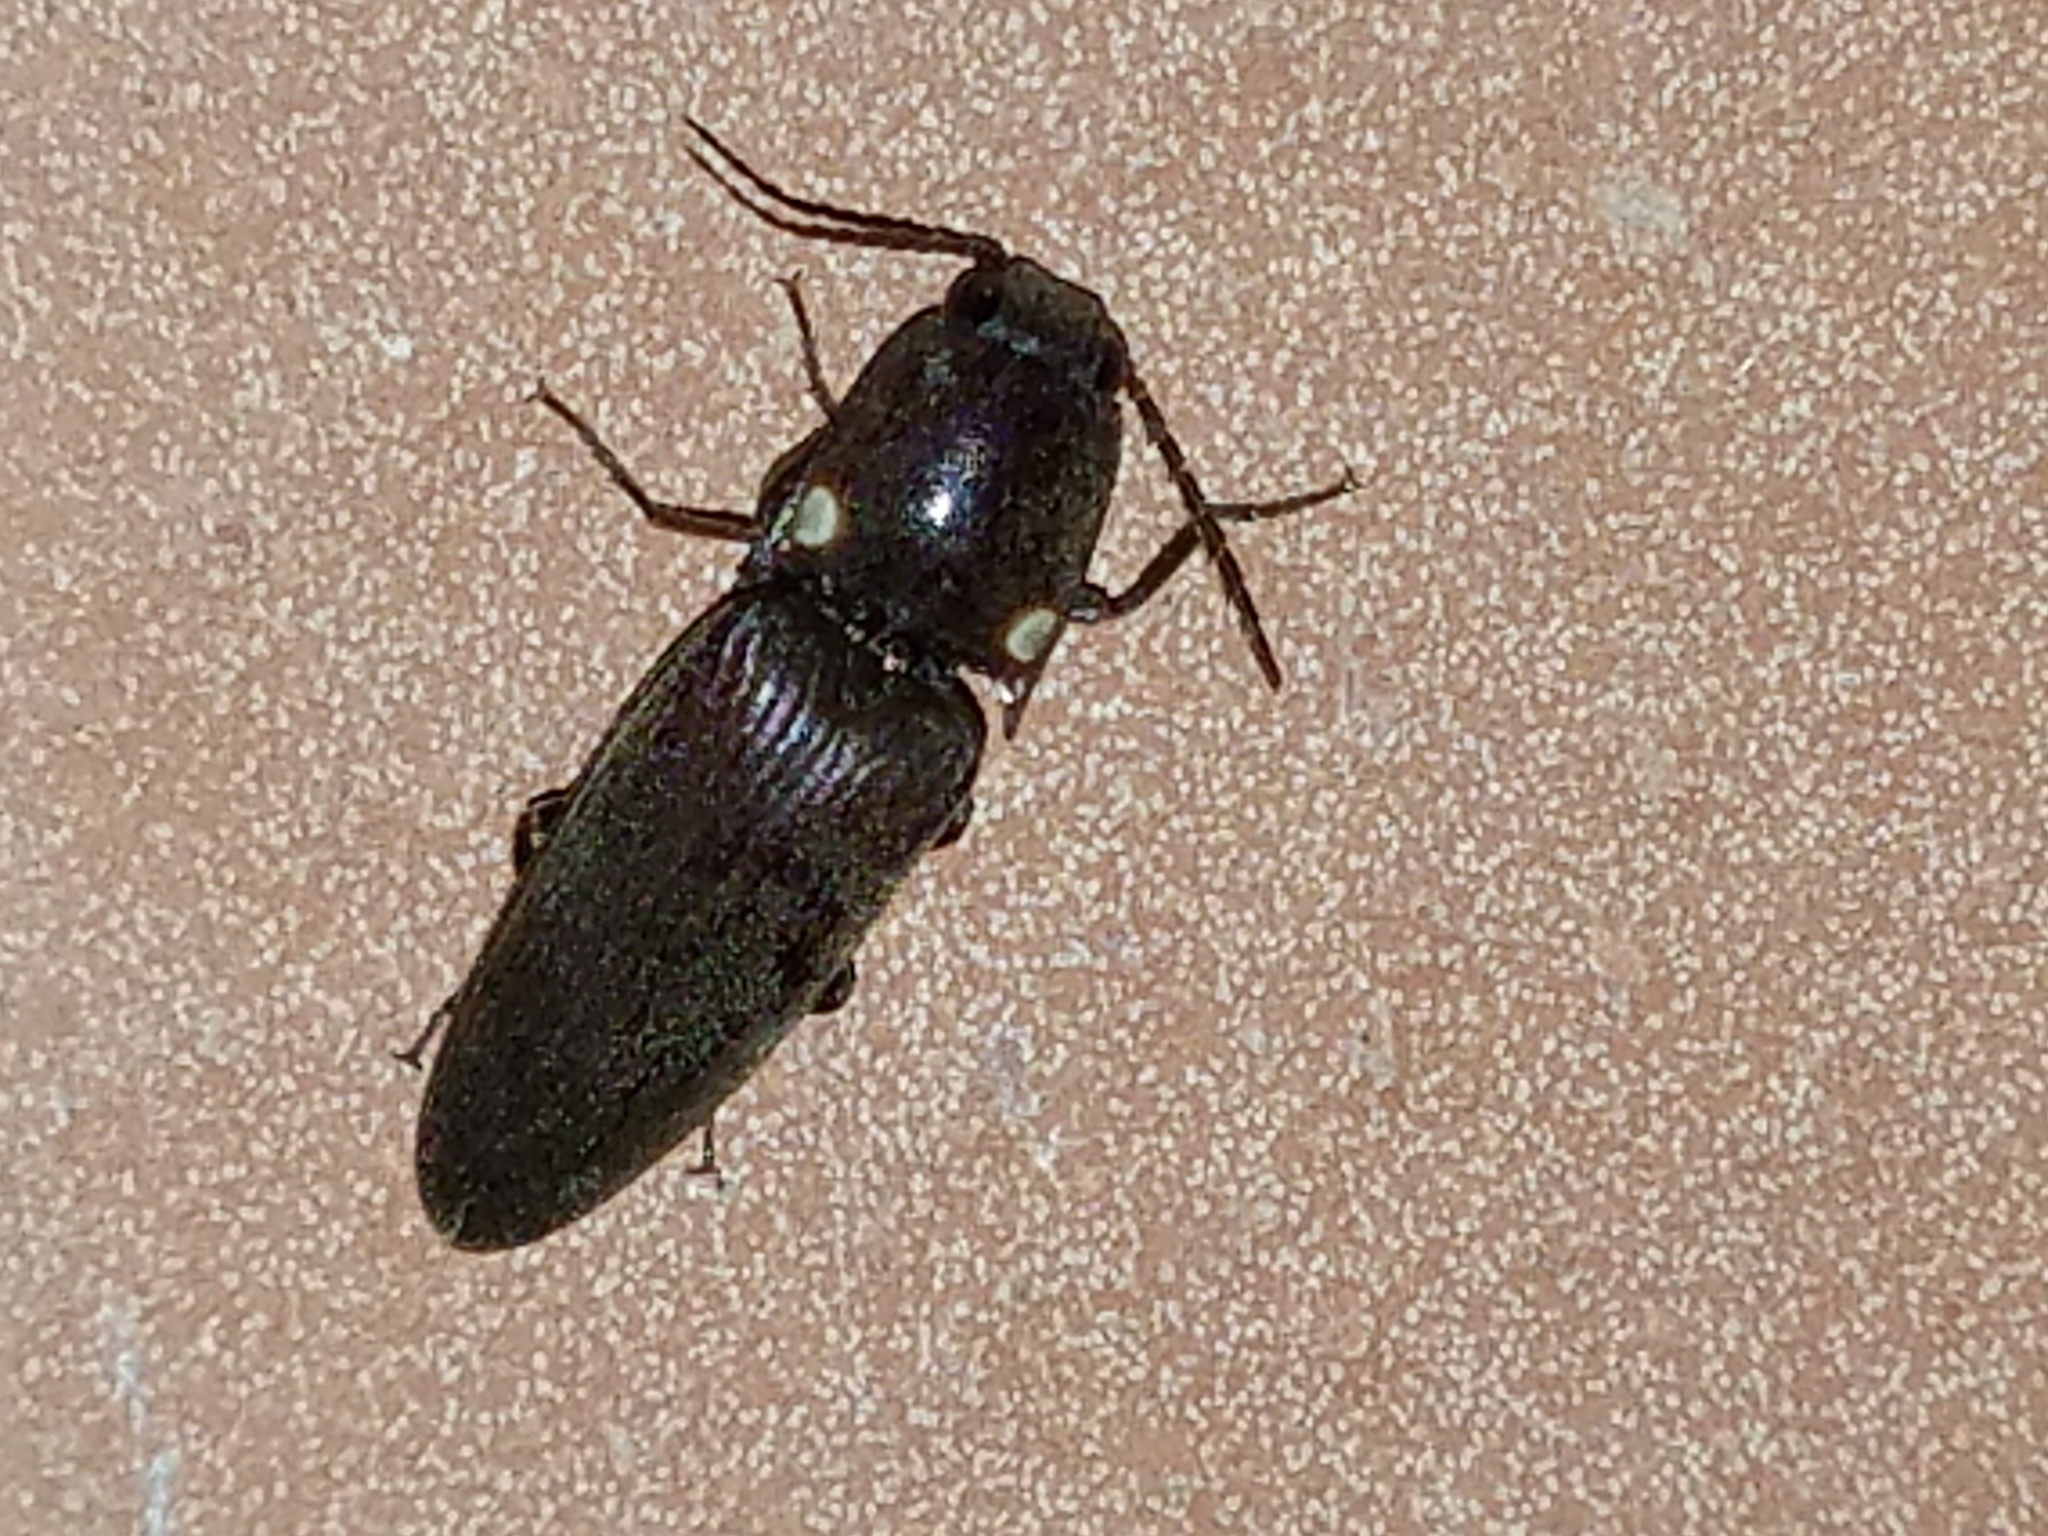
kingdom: Animalia
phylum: Arthropoda
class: Insecta
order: Coleoptera
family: Elateridae
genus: Deilelater
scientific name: Deilelater
